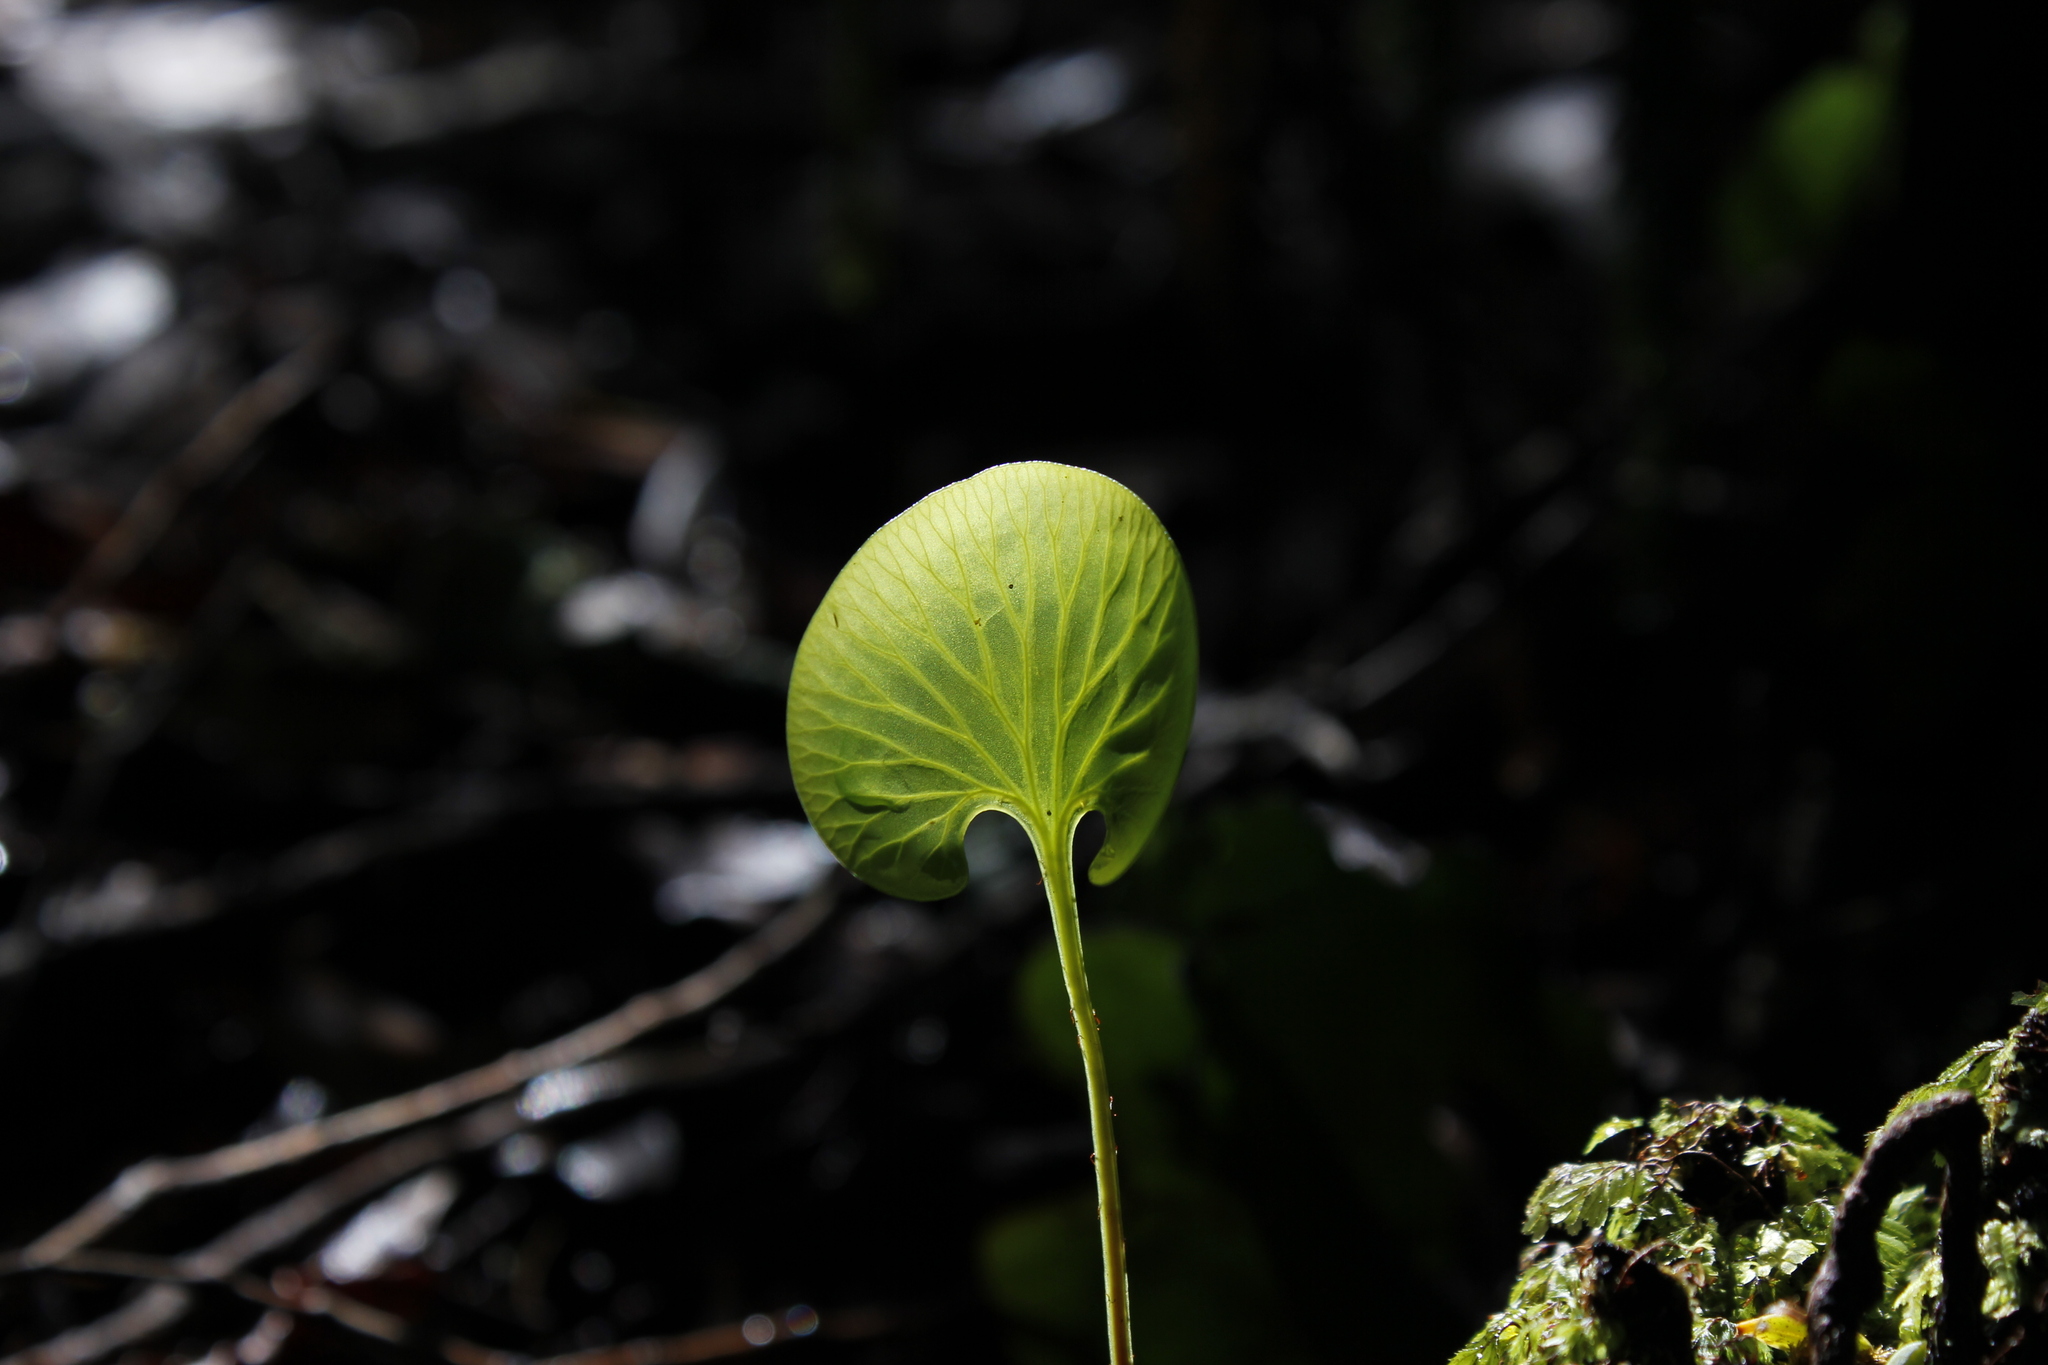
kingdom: Plantae
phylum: Tracheophyta
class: Polypodiopsida
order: Hymenophyllales
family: Hymenophyllaceae
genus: Hymenophyllum
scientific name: Hymenophyllum nephrophyllum
